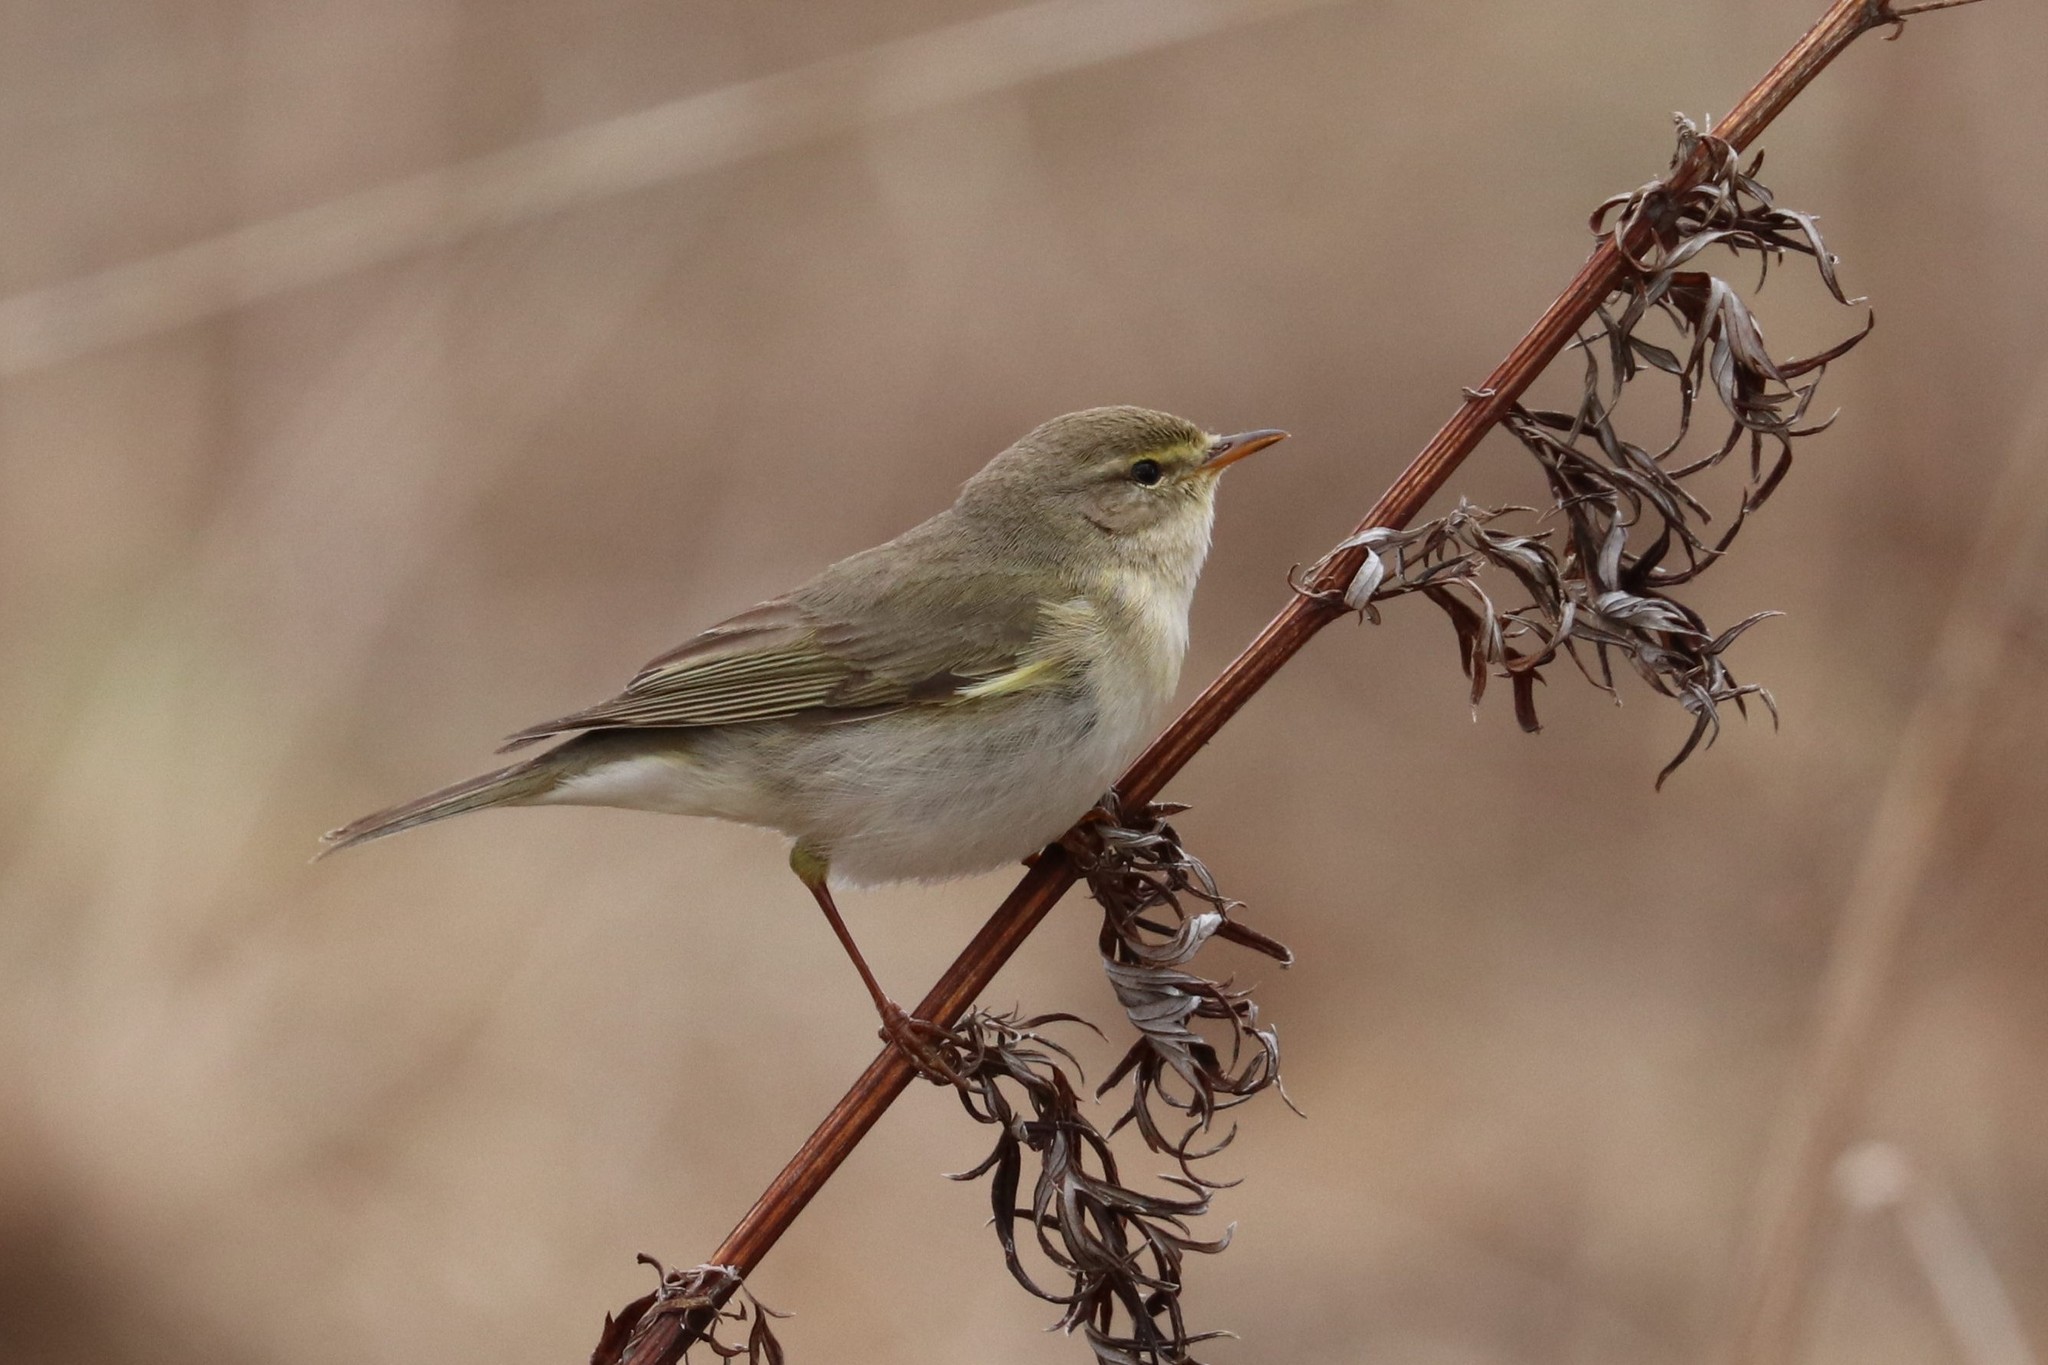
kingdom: Animalia
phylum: Chordata
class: Aves
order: Passeriformes
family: Phylloscopidae
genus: Phylloscopus
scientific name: Phylloscopus trochilus
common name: Willow warbler
